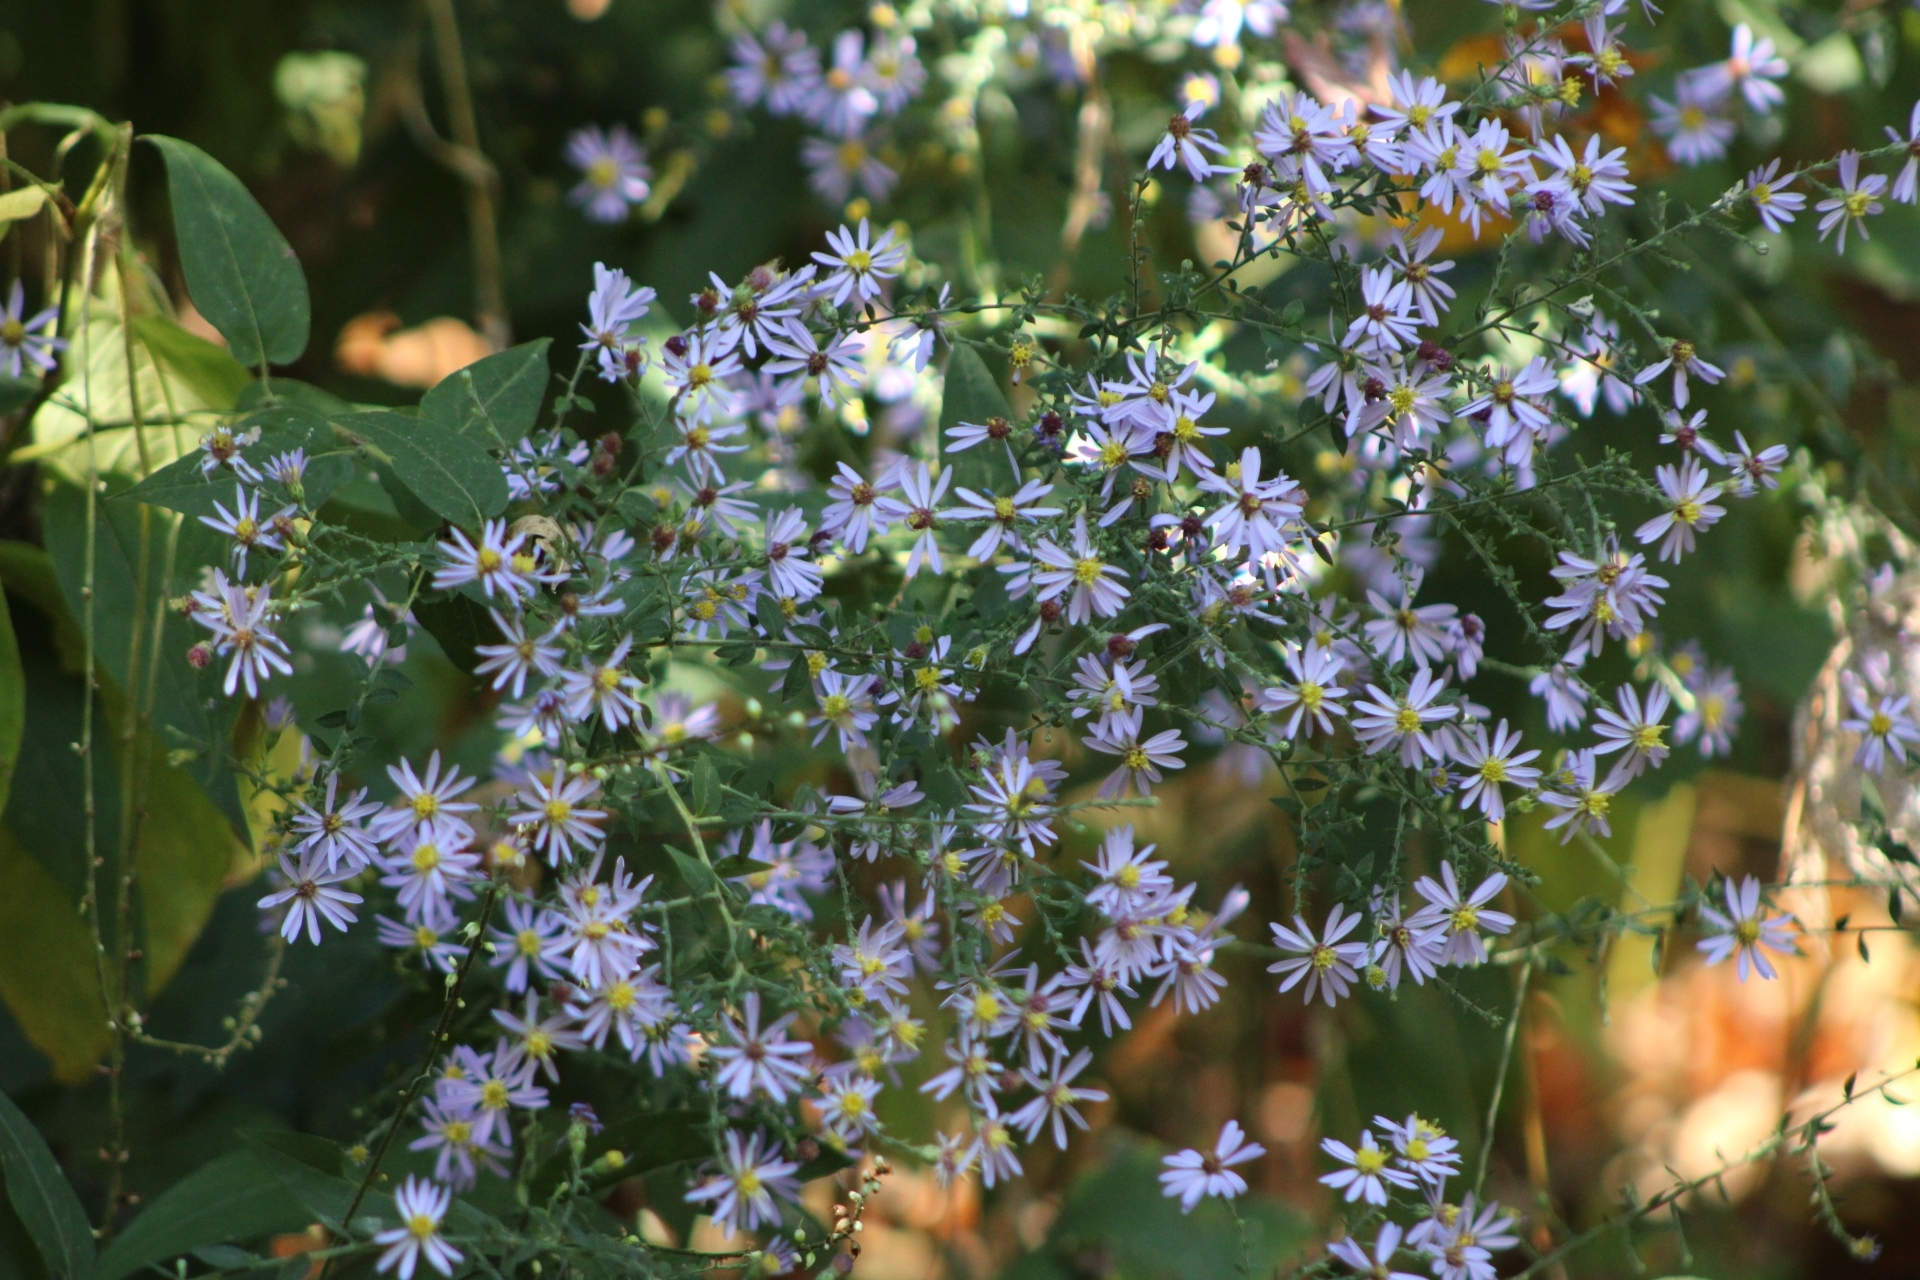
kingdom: Plantae
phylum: Tracheophyta
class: Magnoliopsida
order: Asterales
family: Asteraceae
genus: Symphyotrichum
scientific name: Symphyotrichum shortii
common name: Short's aster
